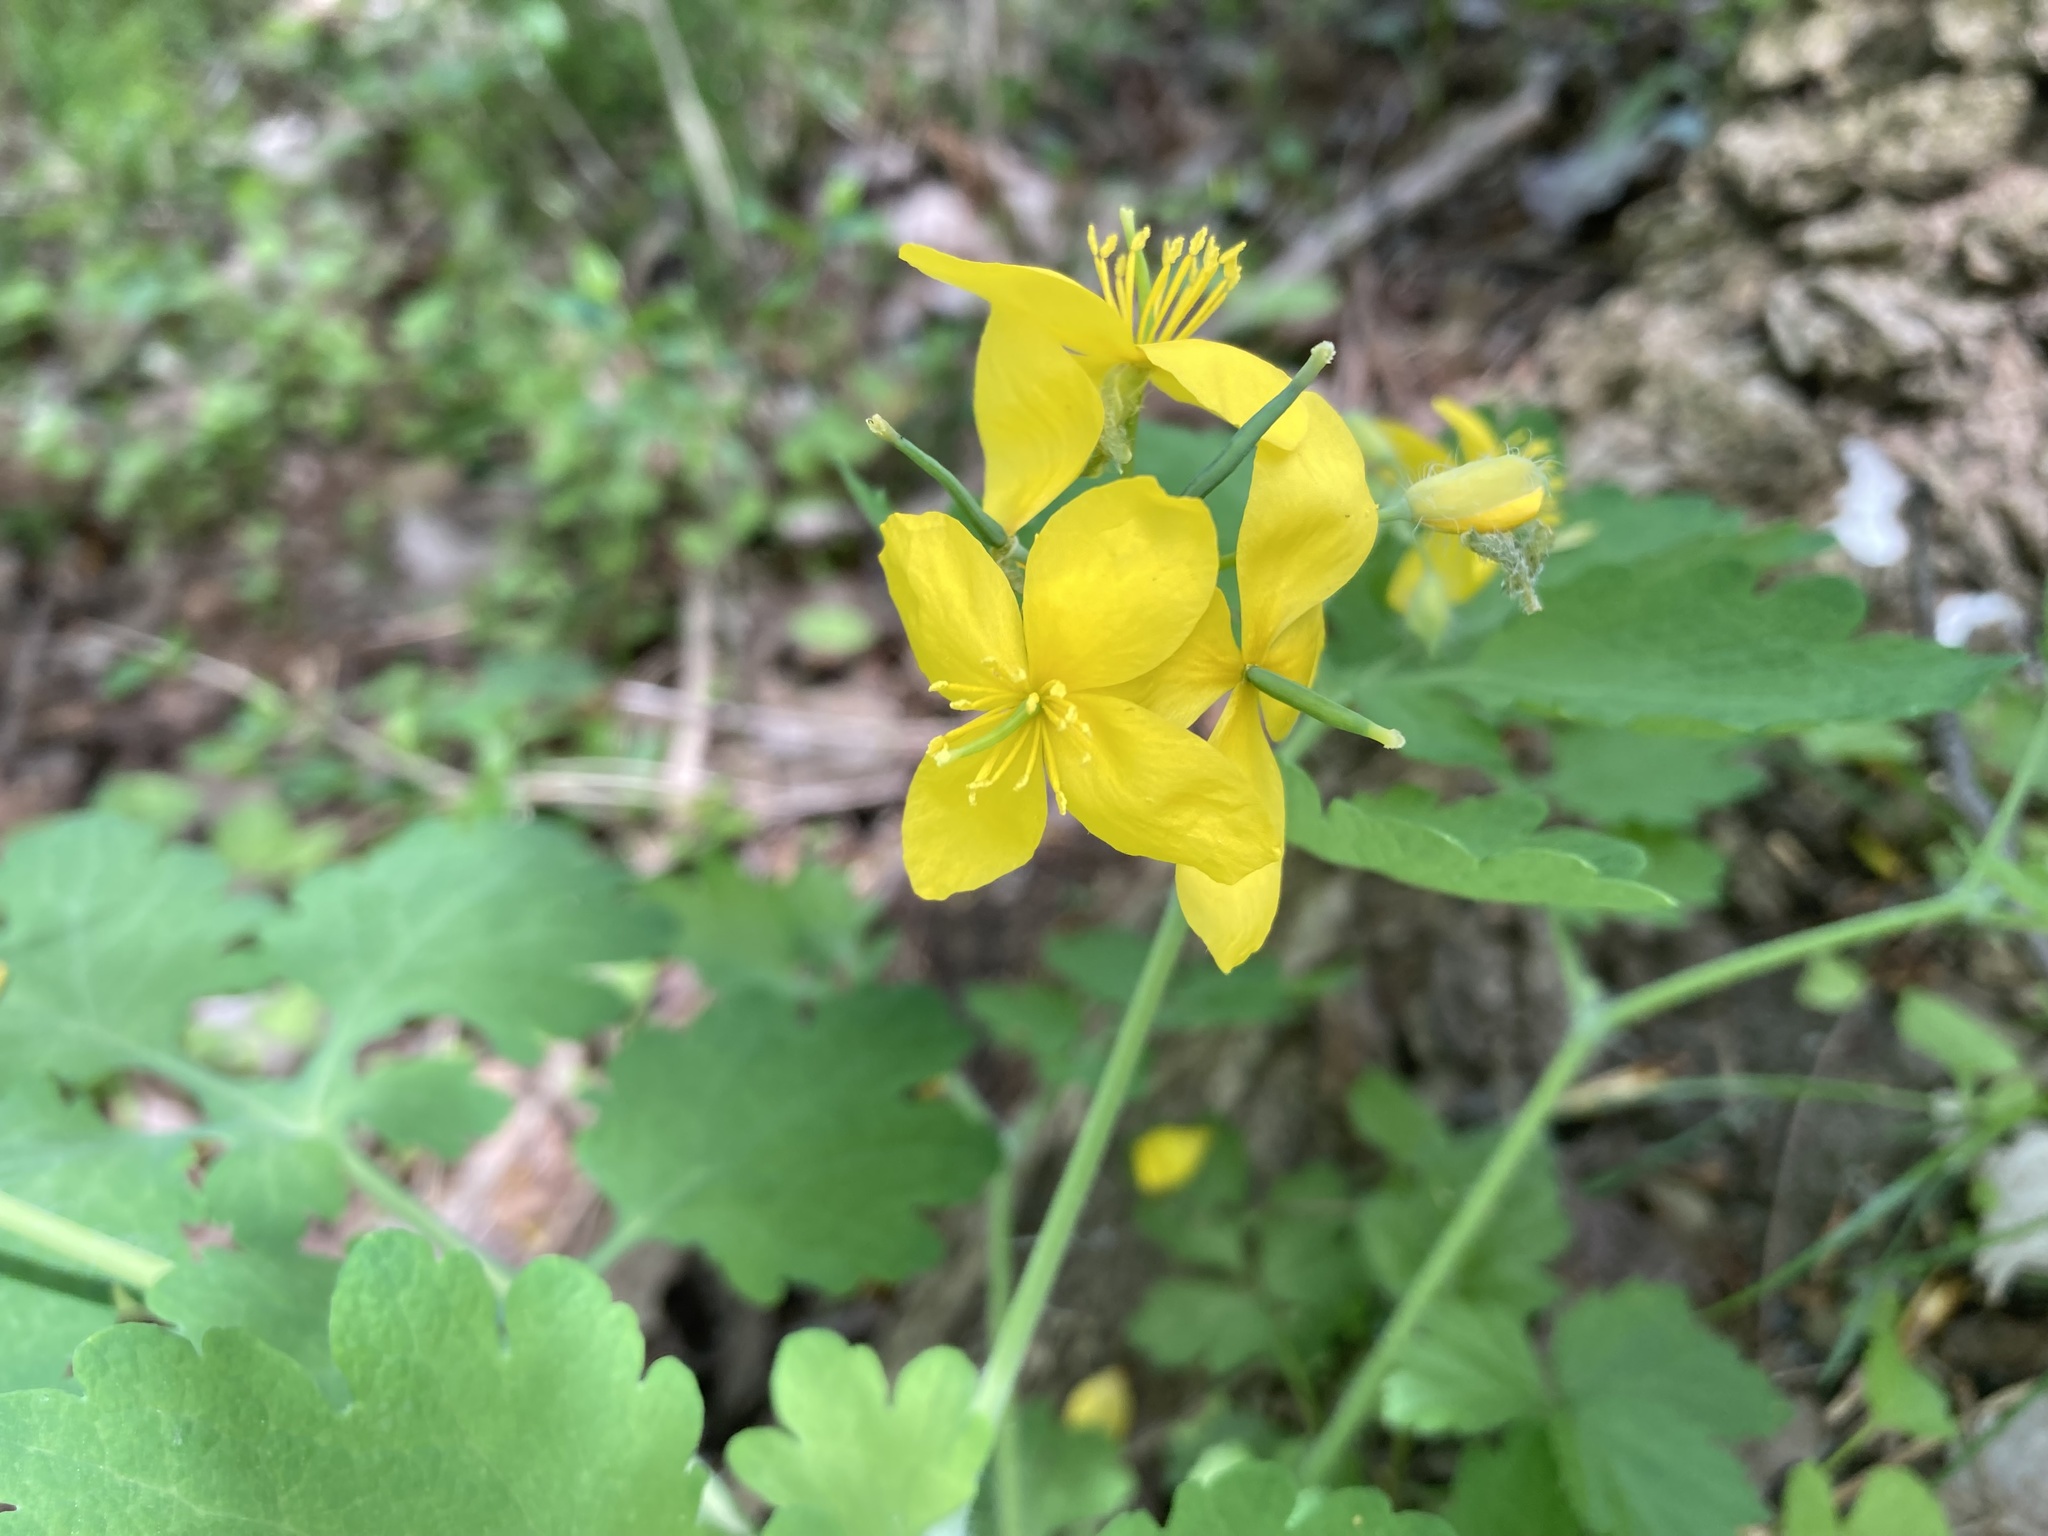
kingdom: Plantae
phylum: Tracheophyta
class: Magnoliopsida
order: Ranunculales
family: Papaveraceae
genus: Chelidonium
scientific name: Chelidonium majus
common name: Greater celandine
